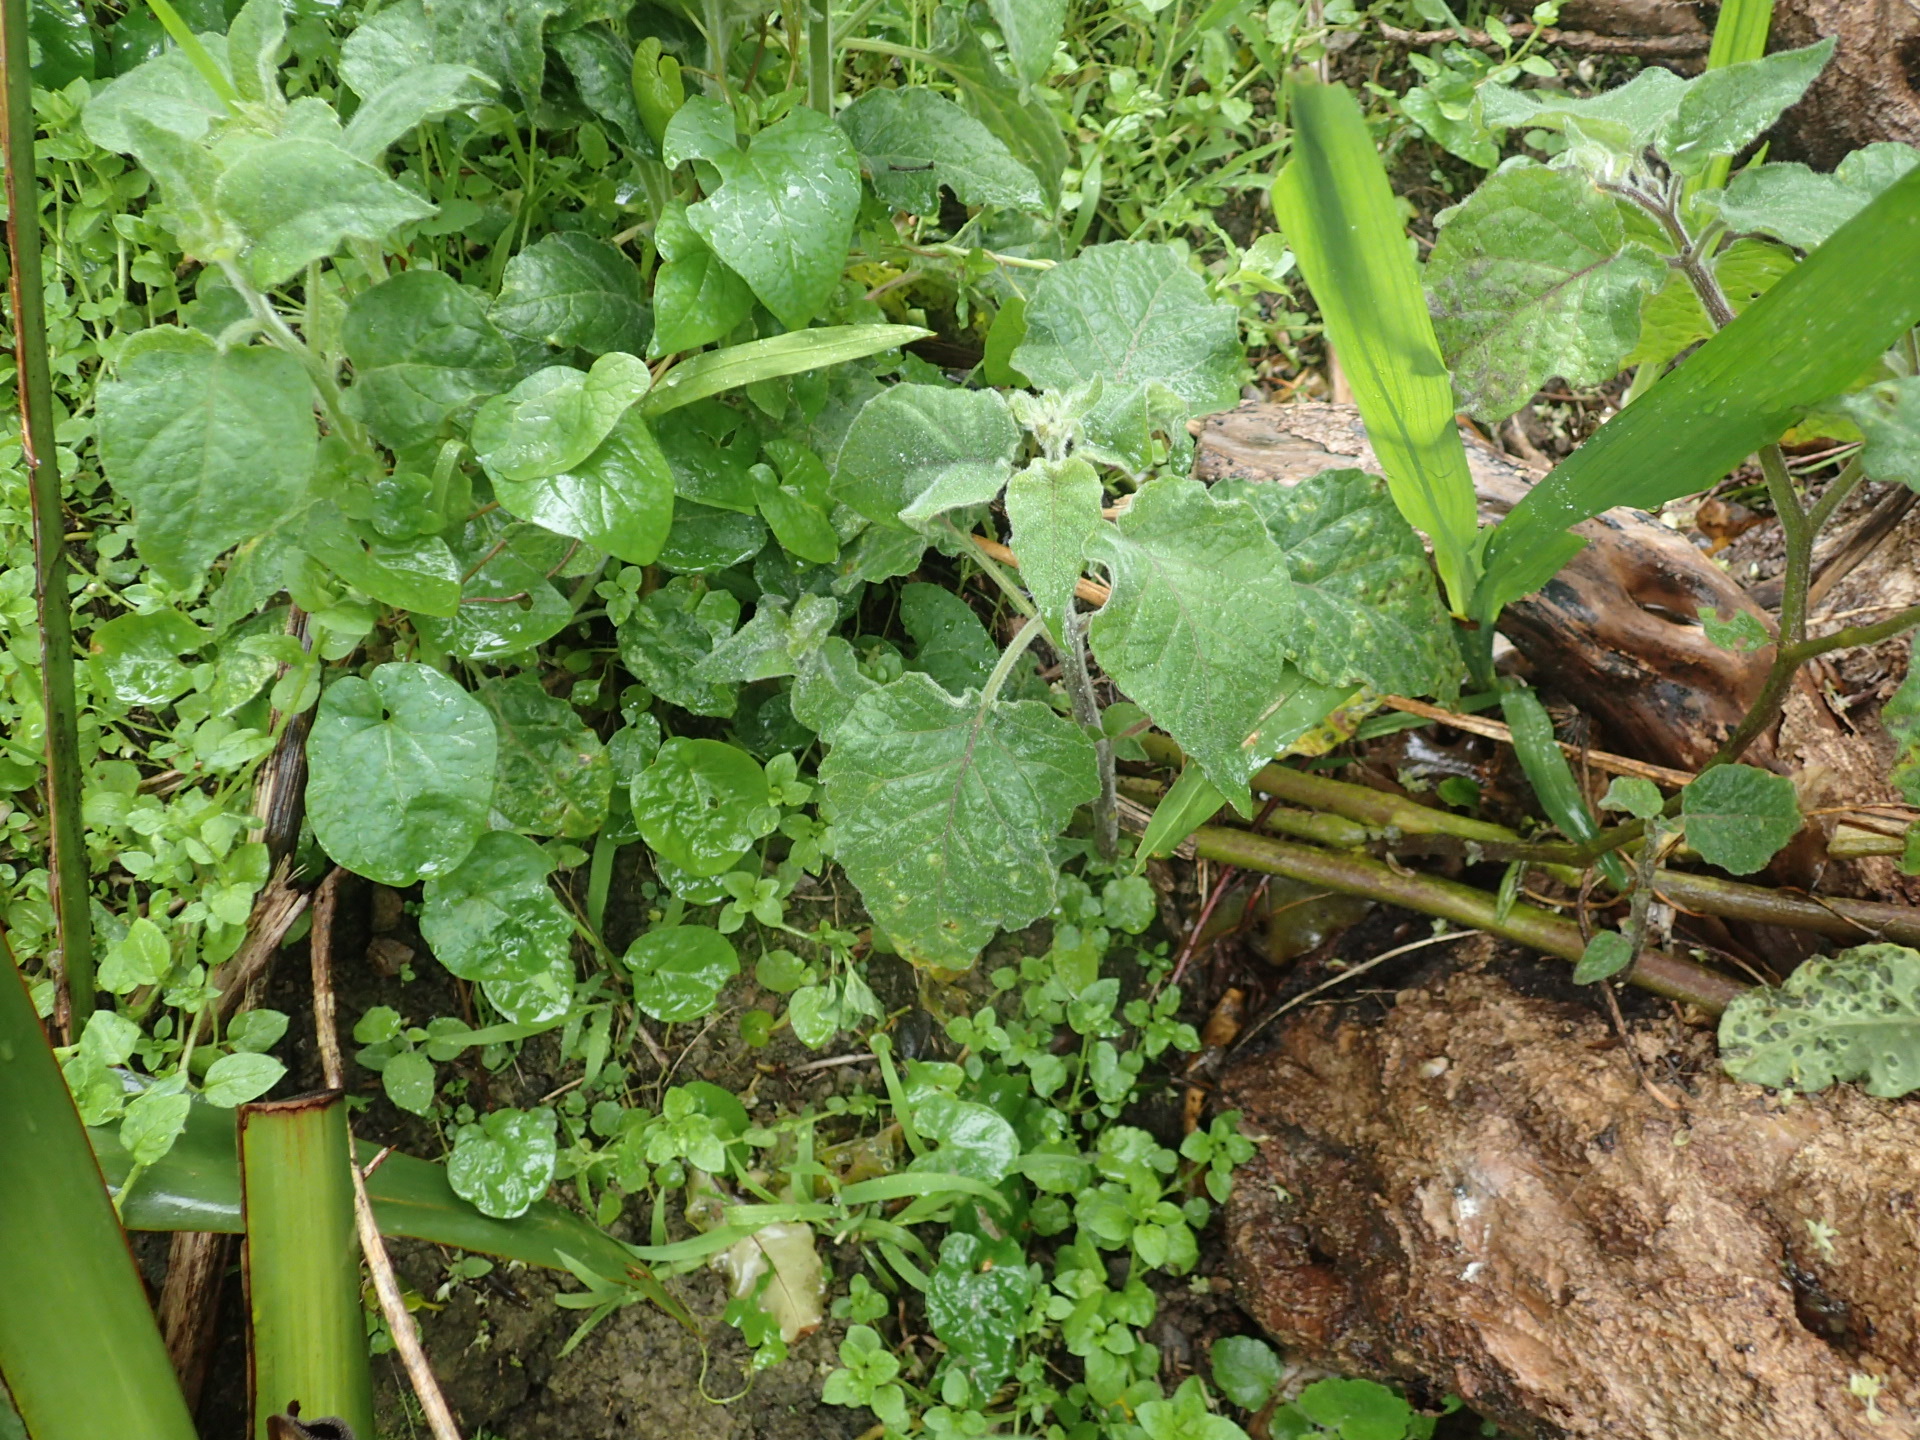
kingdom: Plantae
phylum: Tracheophyta
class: Magnoliopsida
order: Solanales
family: Solanaceae
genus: Physalis
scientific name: Physalis peruviana
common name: Cape-gooseberry
